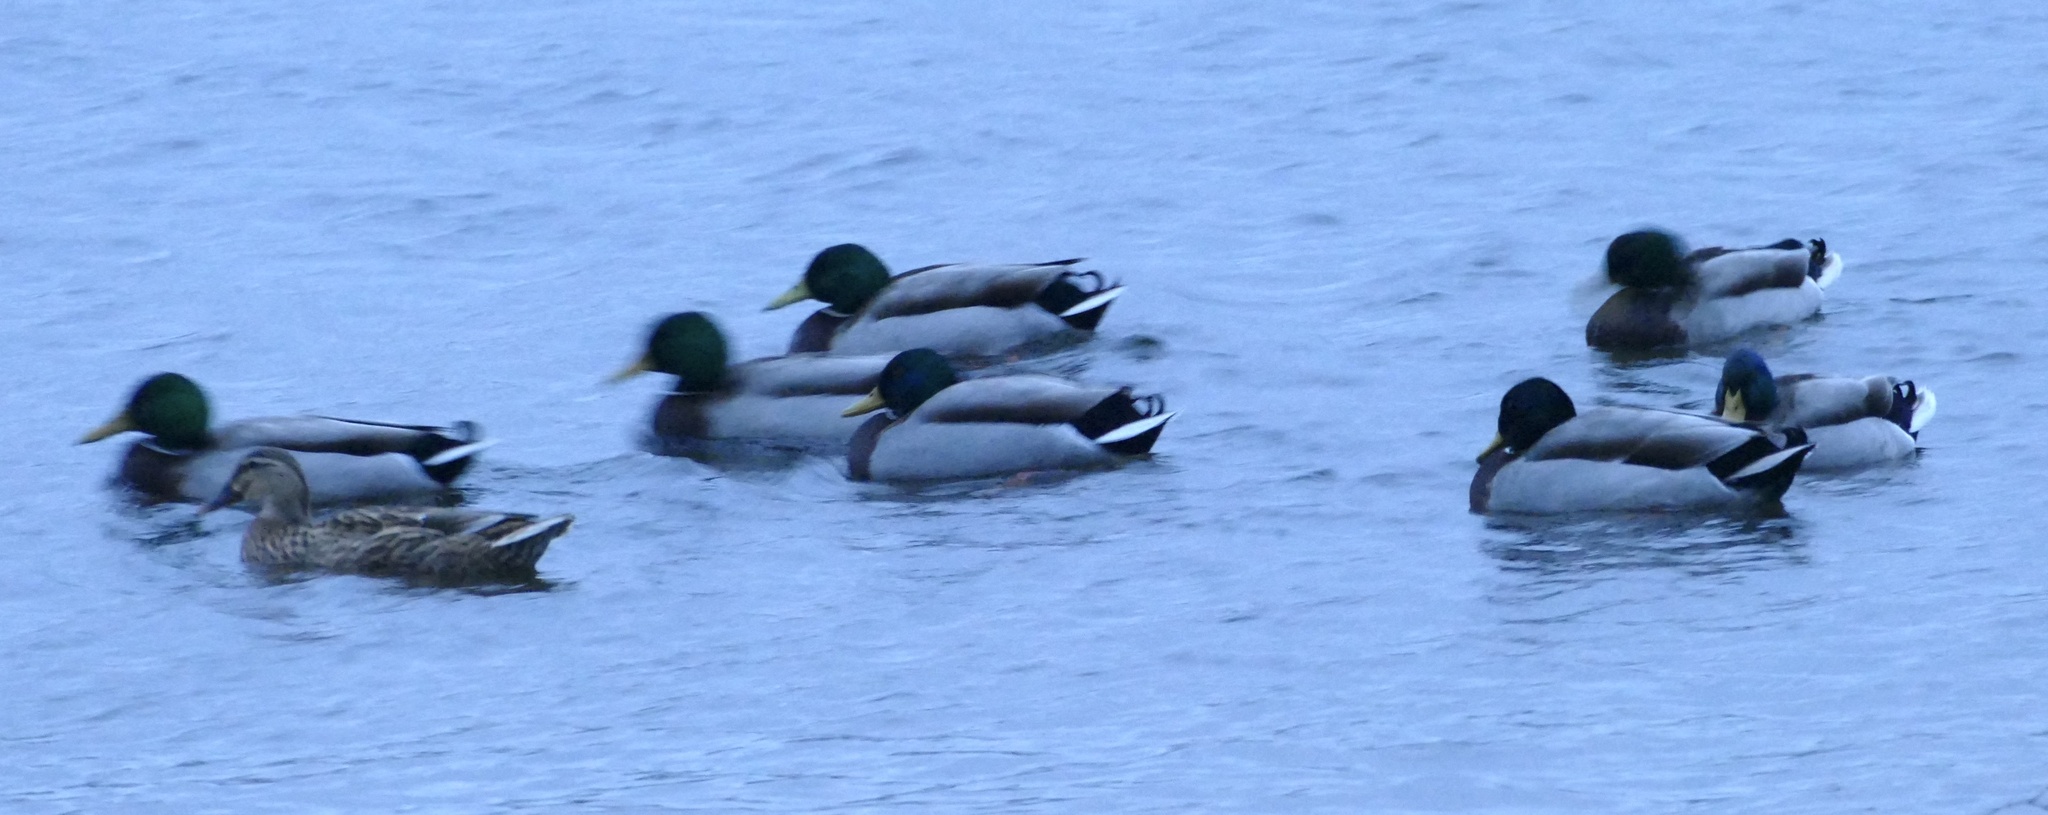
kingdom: Animalia
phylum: Chordata
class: Aves
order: Anseriformes
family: Anatidae
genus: Anas
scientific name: Anas platyrhynchos
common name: Mallard
